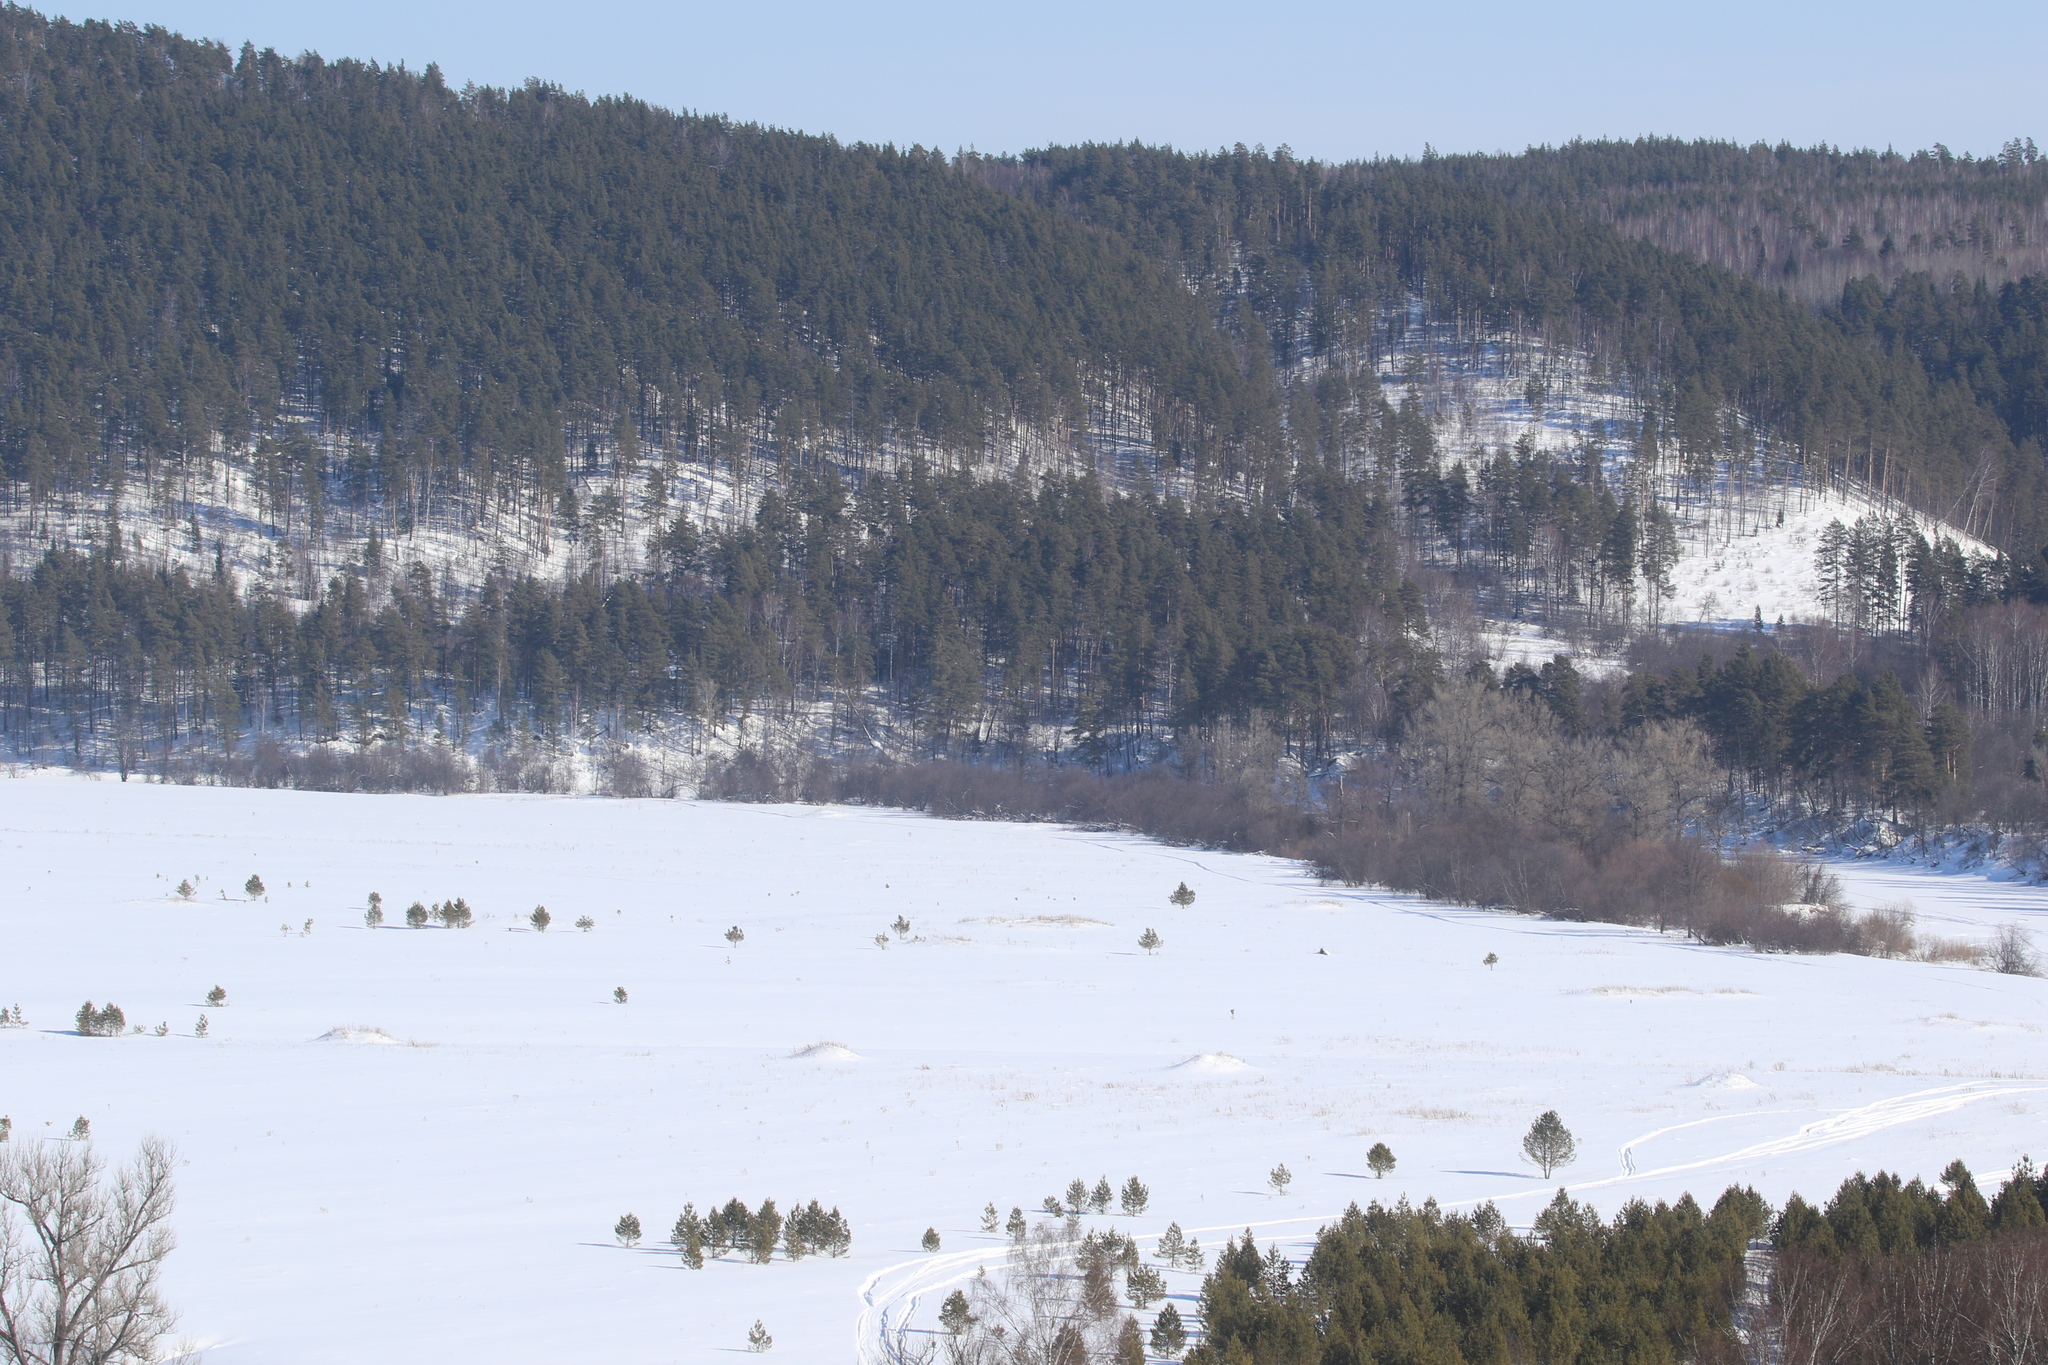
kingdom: Plantae
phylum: Tracheophyta
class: Pinopsida
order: Pinales
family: Pinaceae
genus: Pinus
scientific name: Pinus sylvestris
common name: Scots pine
